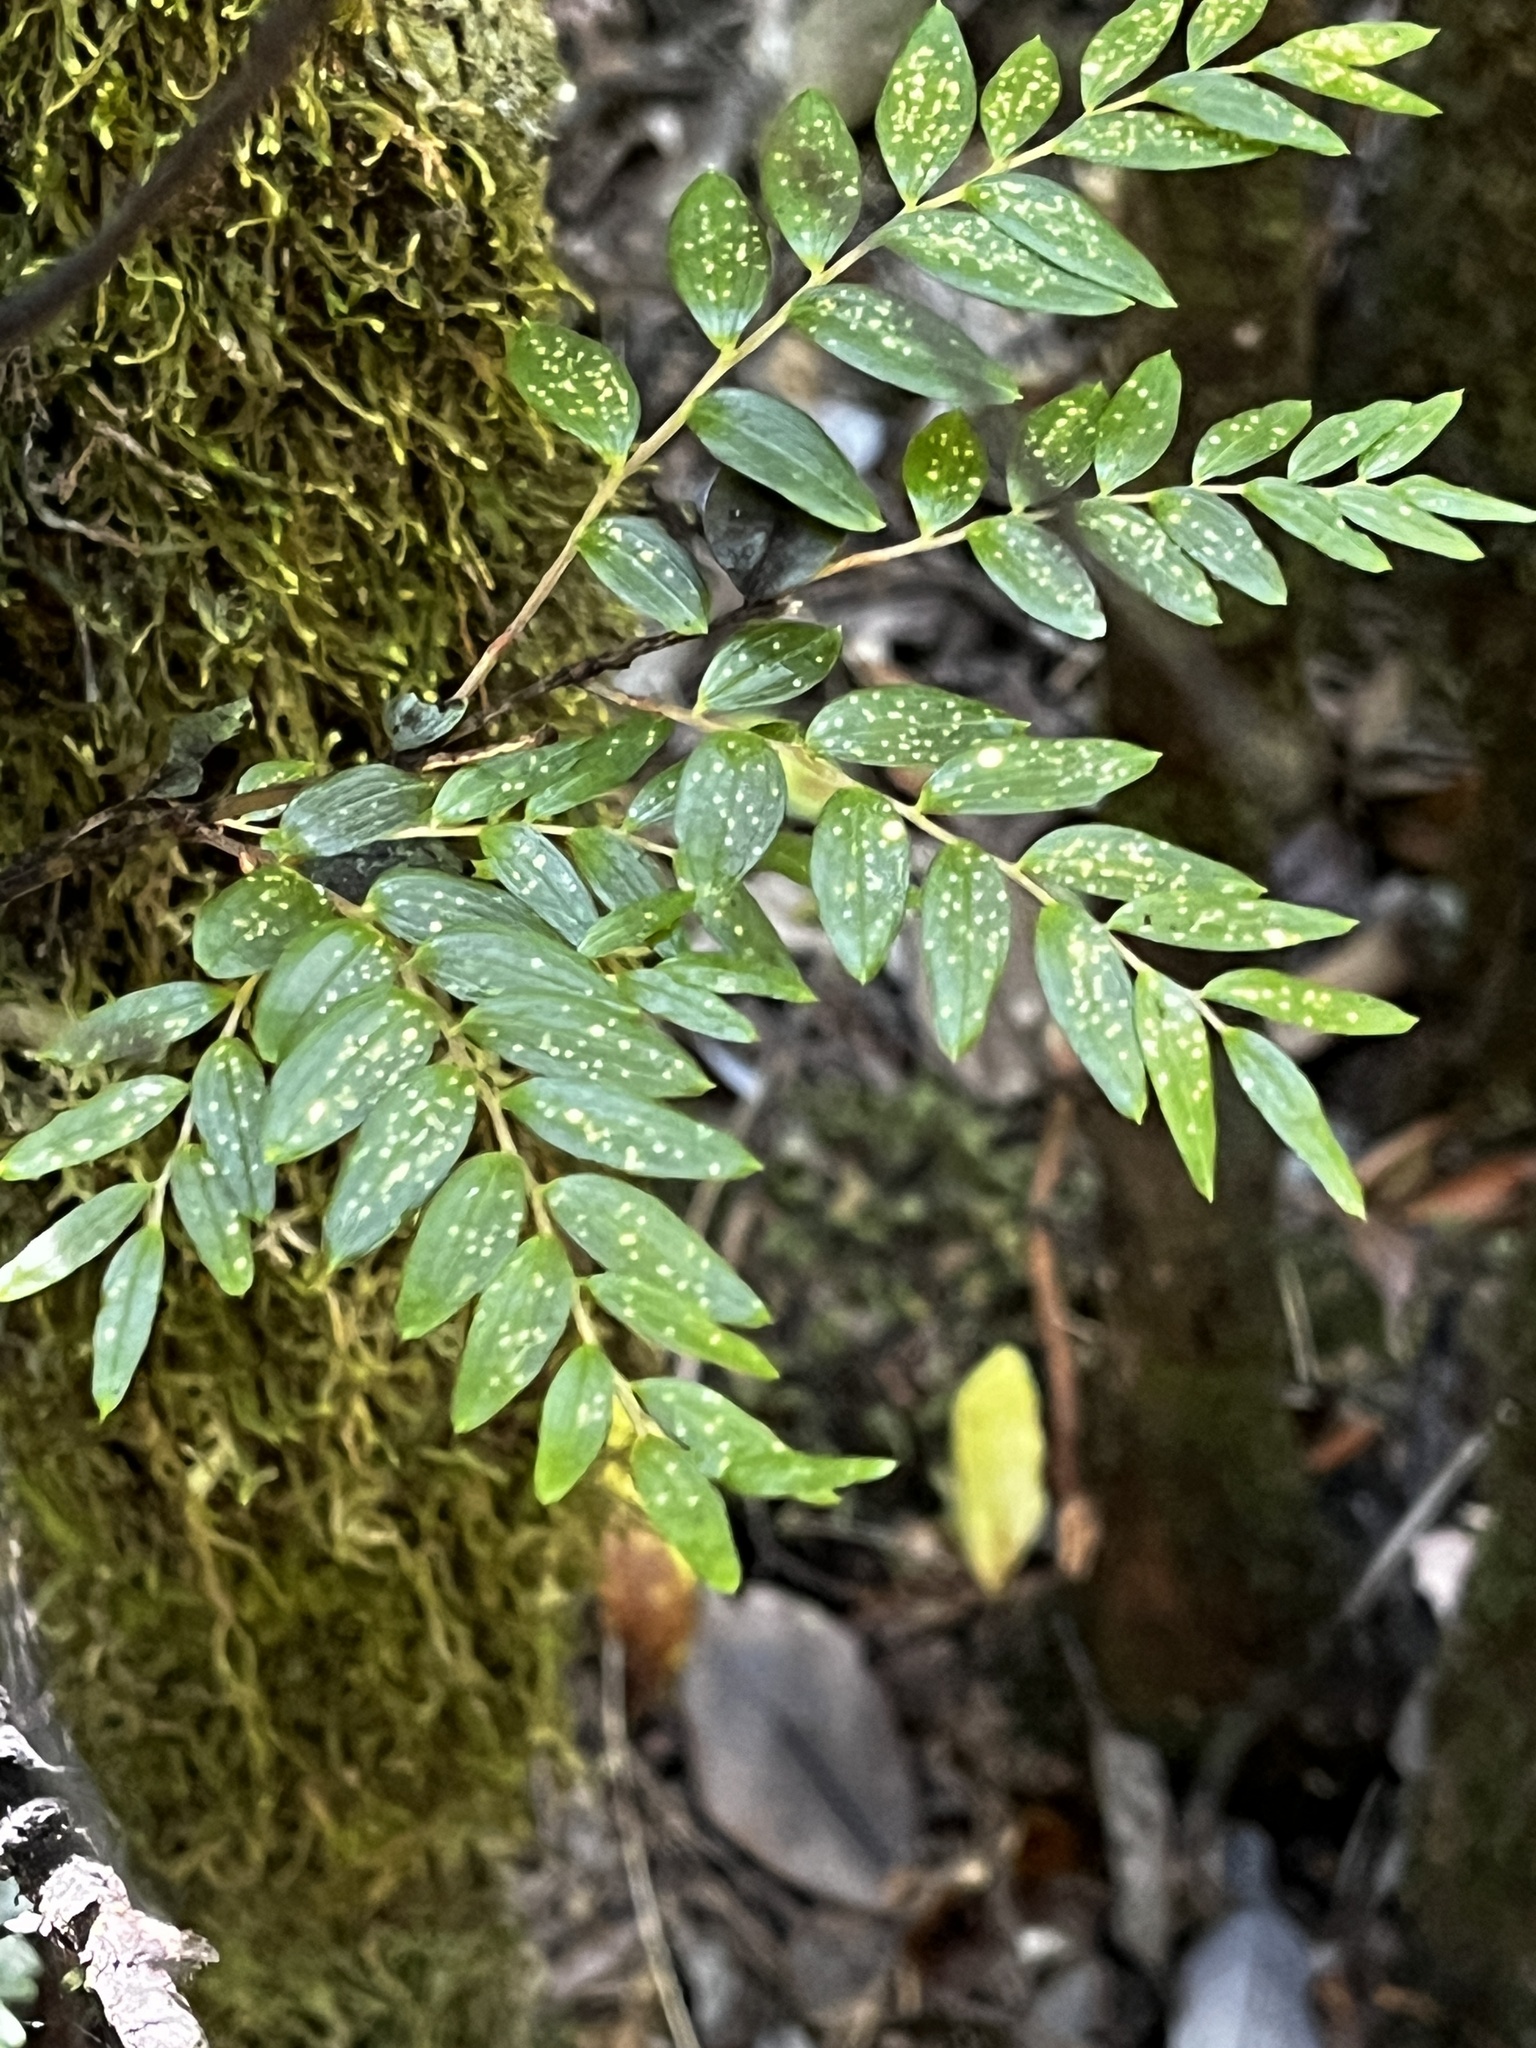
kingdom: Plantae
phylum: Tracheophyta
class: Liliopsida
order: Liliales
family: Alstroemeriaceae
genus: Luzuriaga
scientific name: Luzuriaga polyphylla
